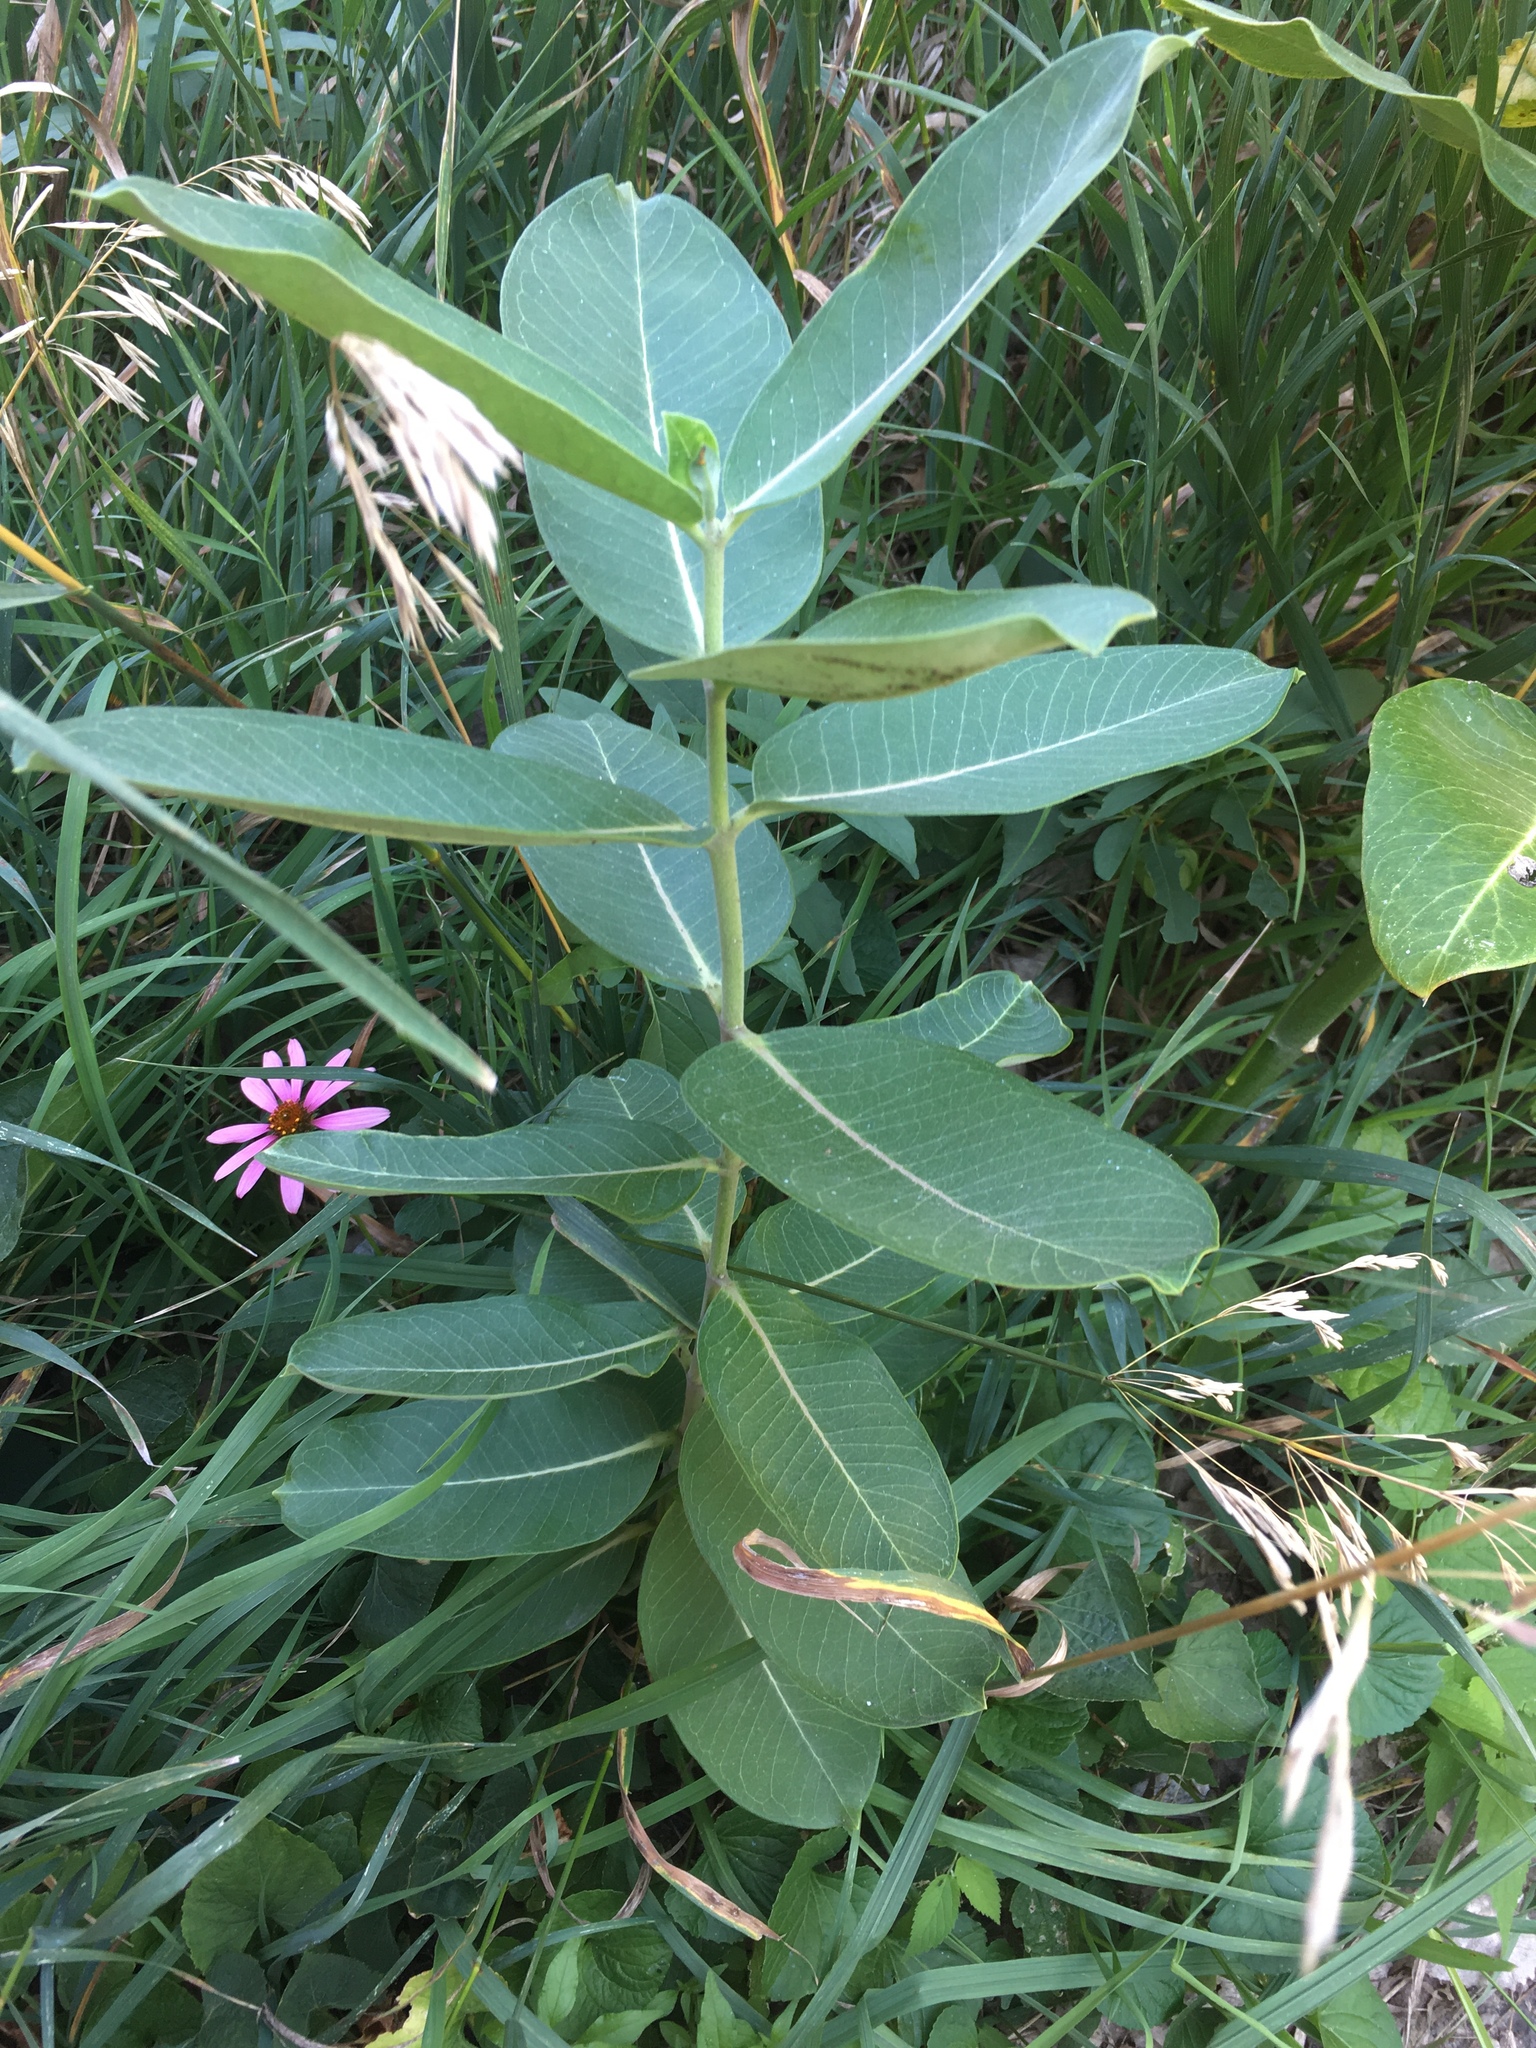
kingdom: Plantae
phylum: Tracheophyta
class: Magnoliopsida
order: Gentianales
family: Apocynaceae
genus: Asclepias
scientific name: Asclepias syriaca
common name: Common milkweed
